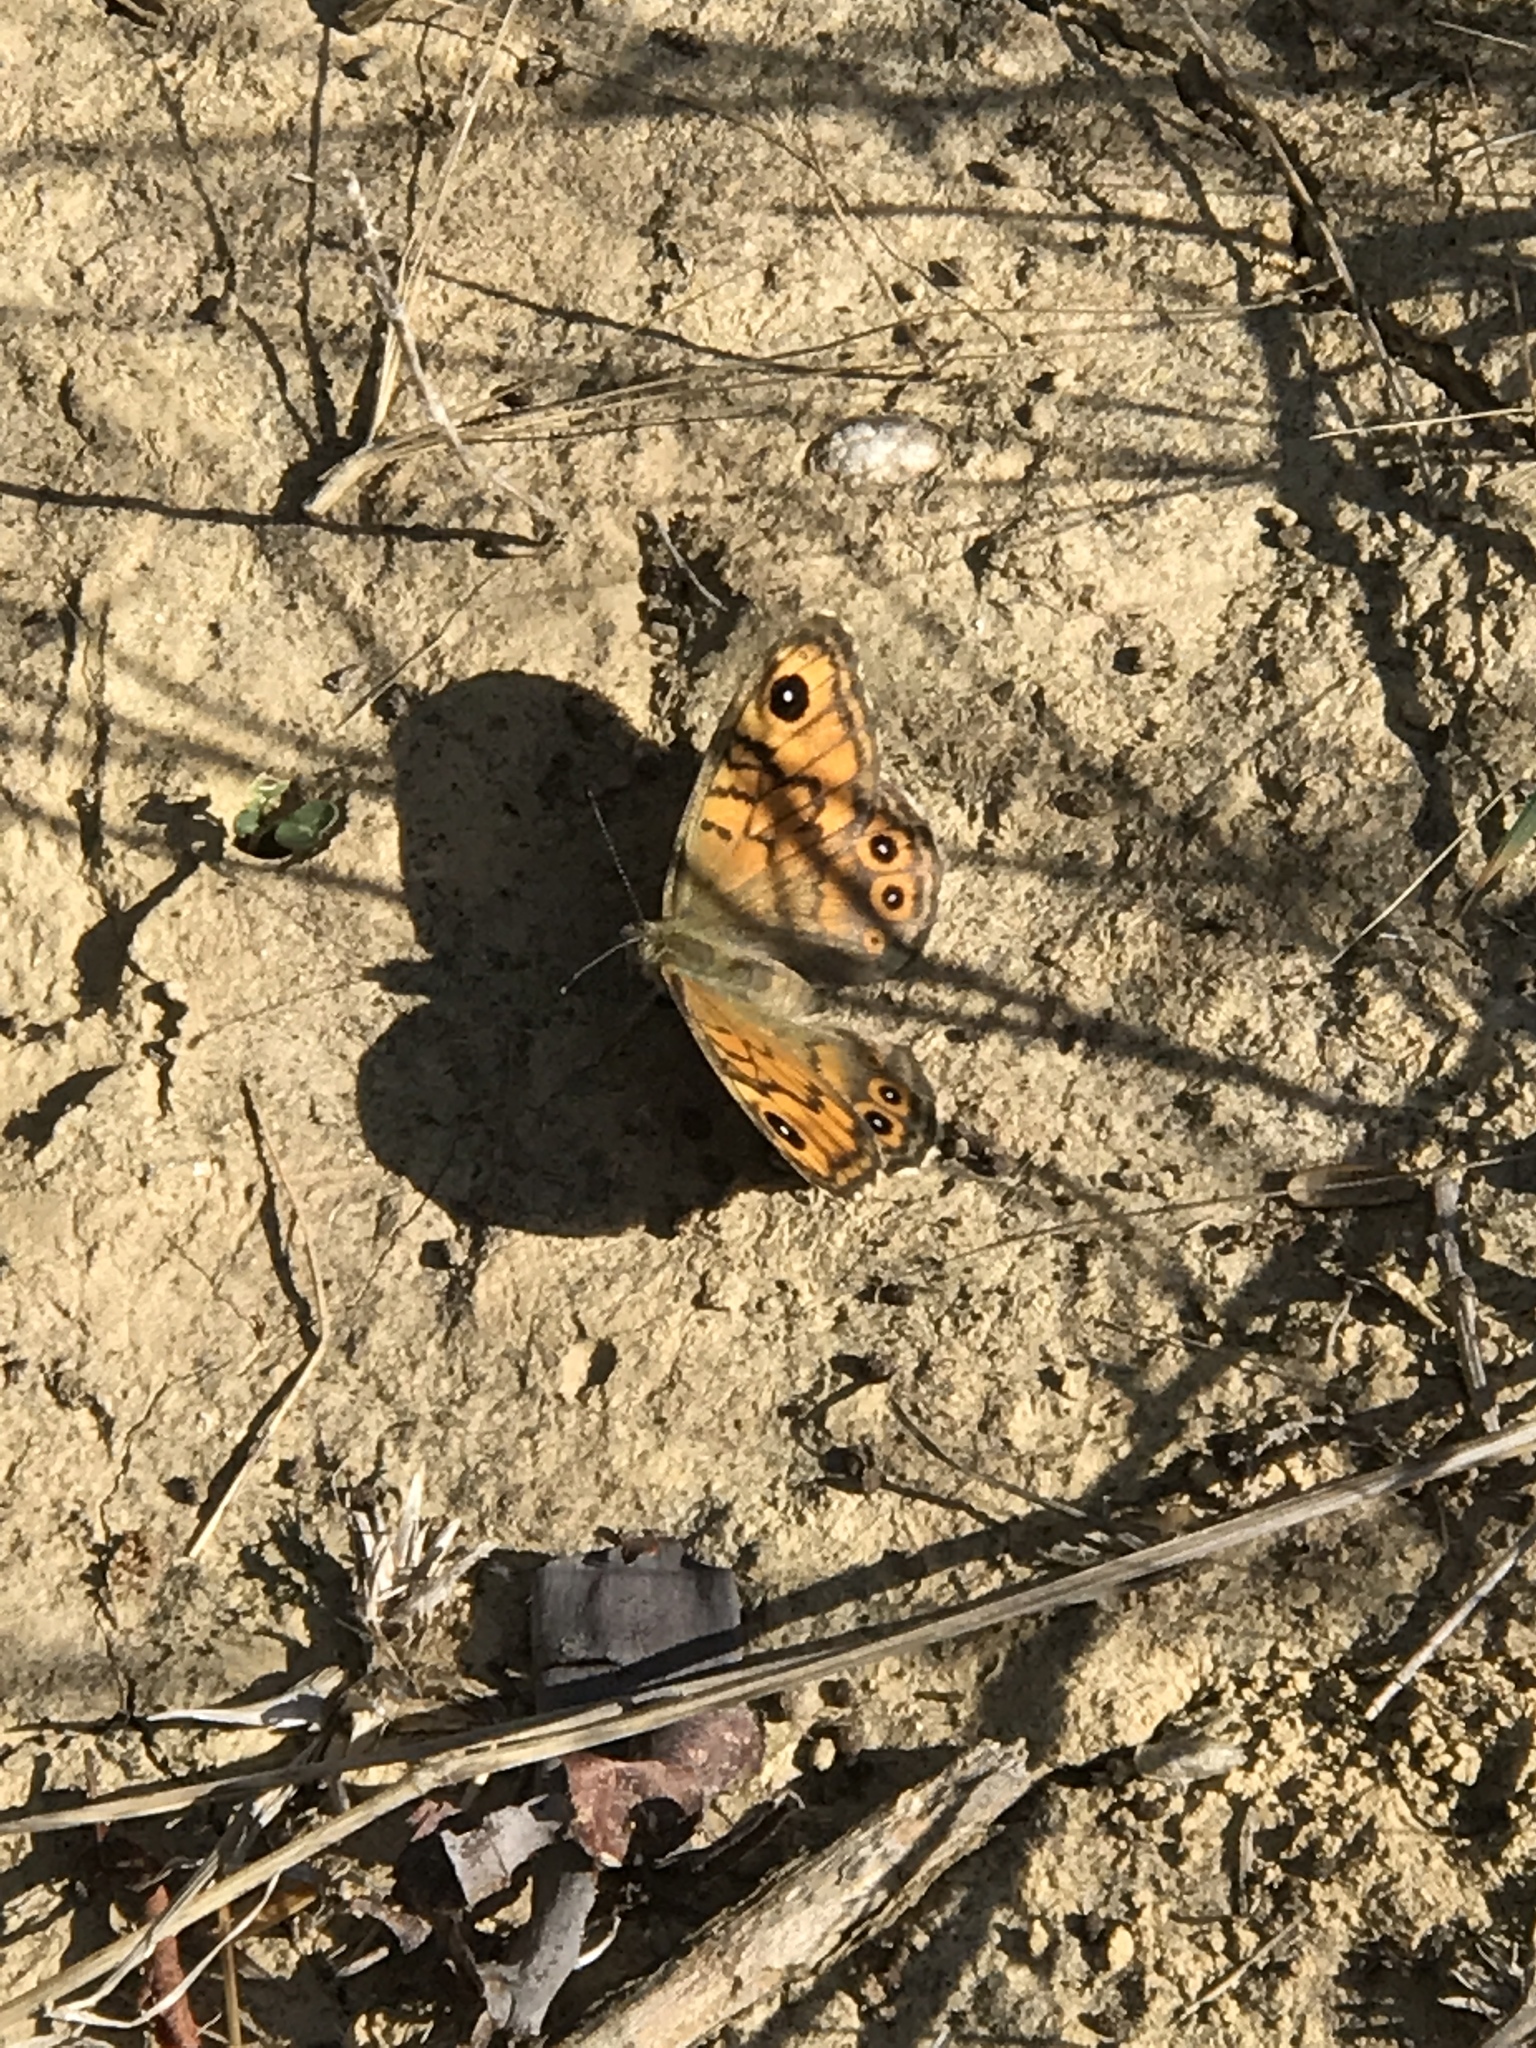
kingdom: Animalia
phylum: Arthropoda
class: Insecta
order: Lepidoptera
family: Nymphalidae
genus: Pararge
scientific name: Pararge Lasiommata megera
